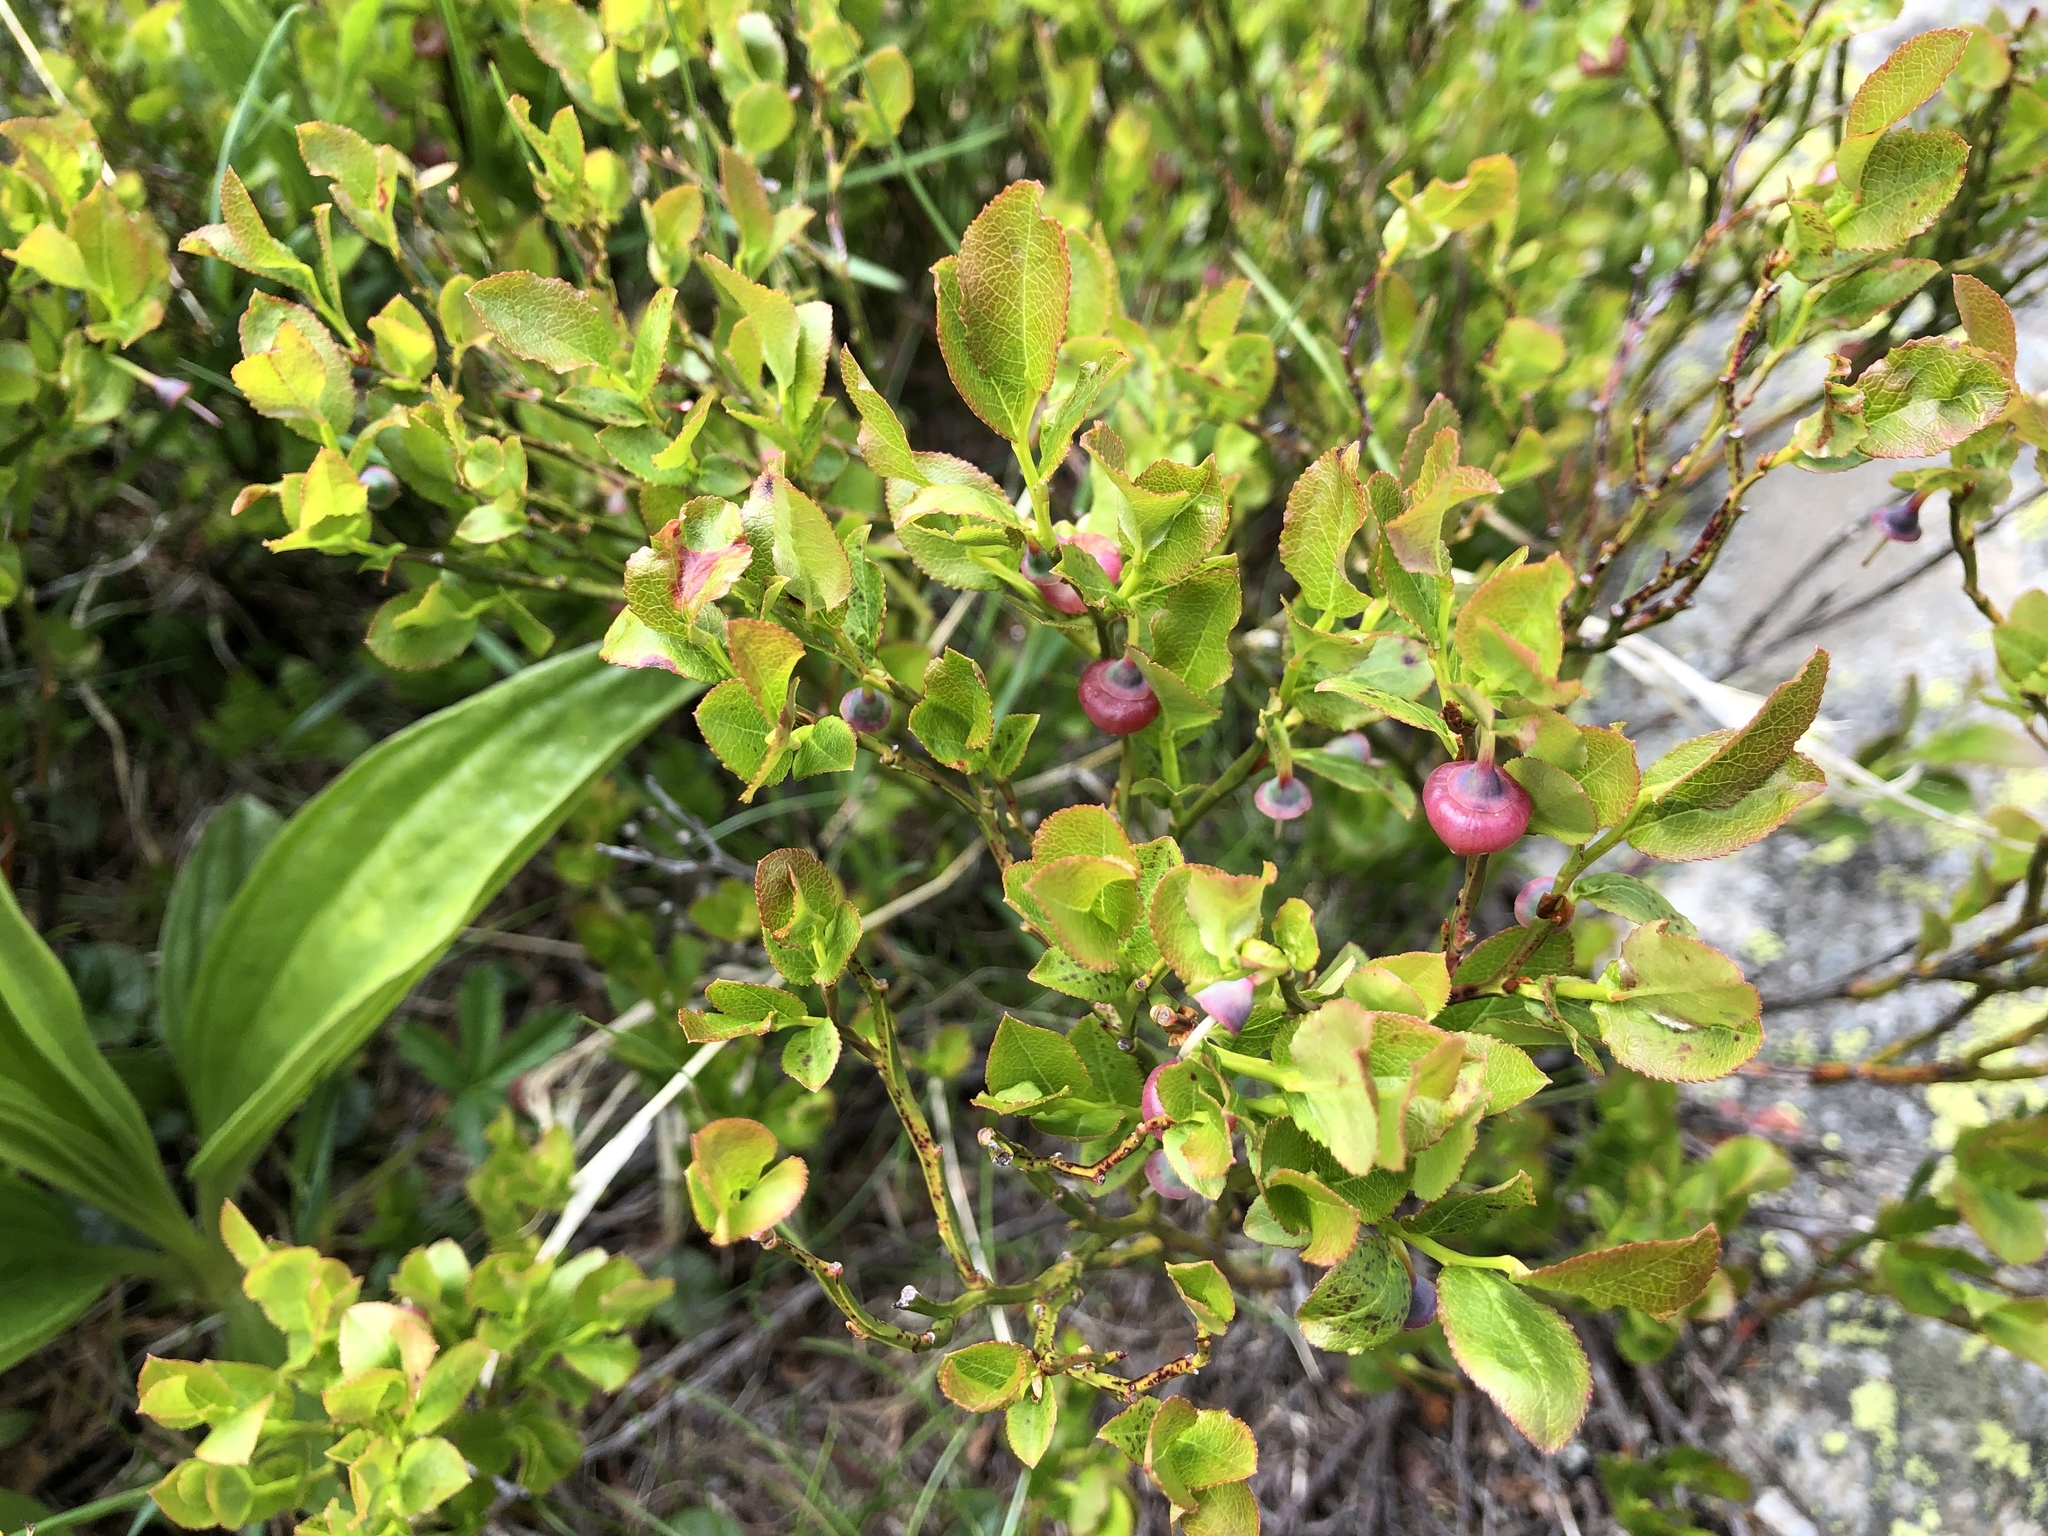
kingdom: Plantae
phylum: Tracheophyta
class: Magnoliopsida
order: Ericales
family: Ericaceae
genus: Vaccinium
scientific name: Vaccinium myrtillus
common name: Bilberry
